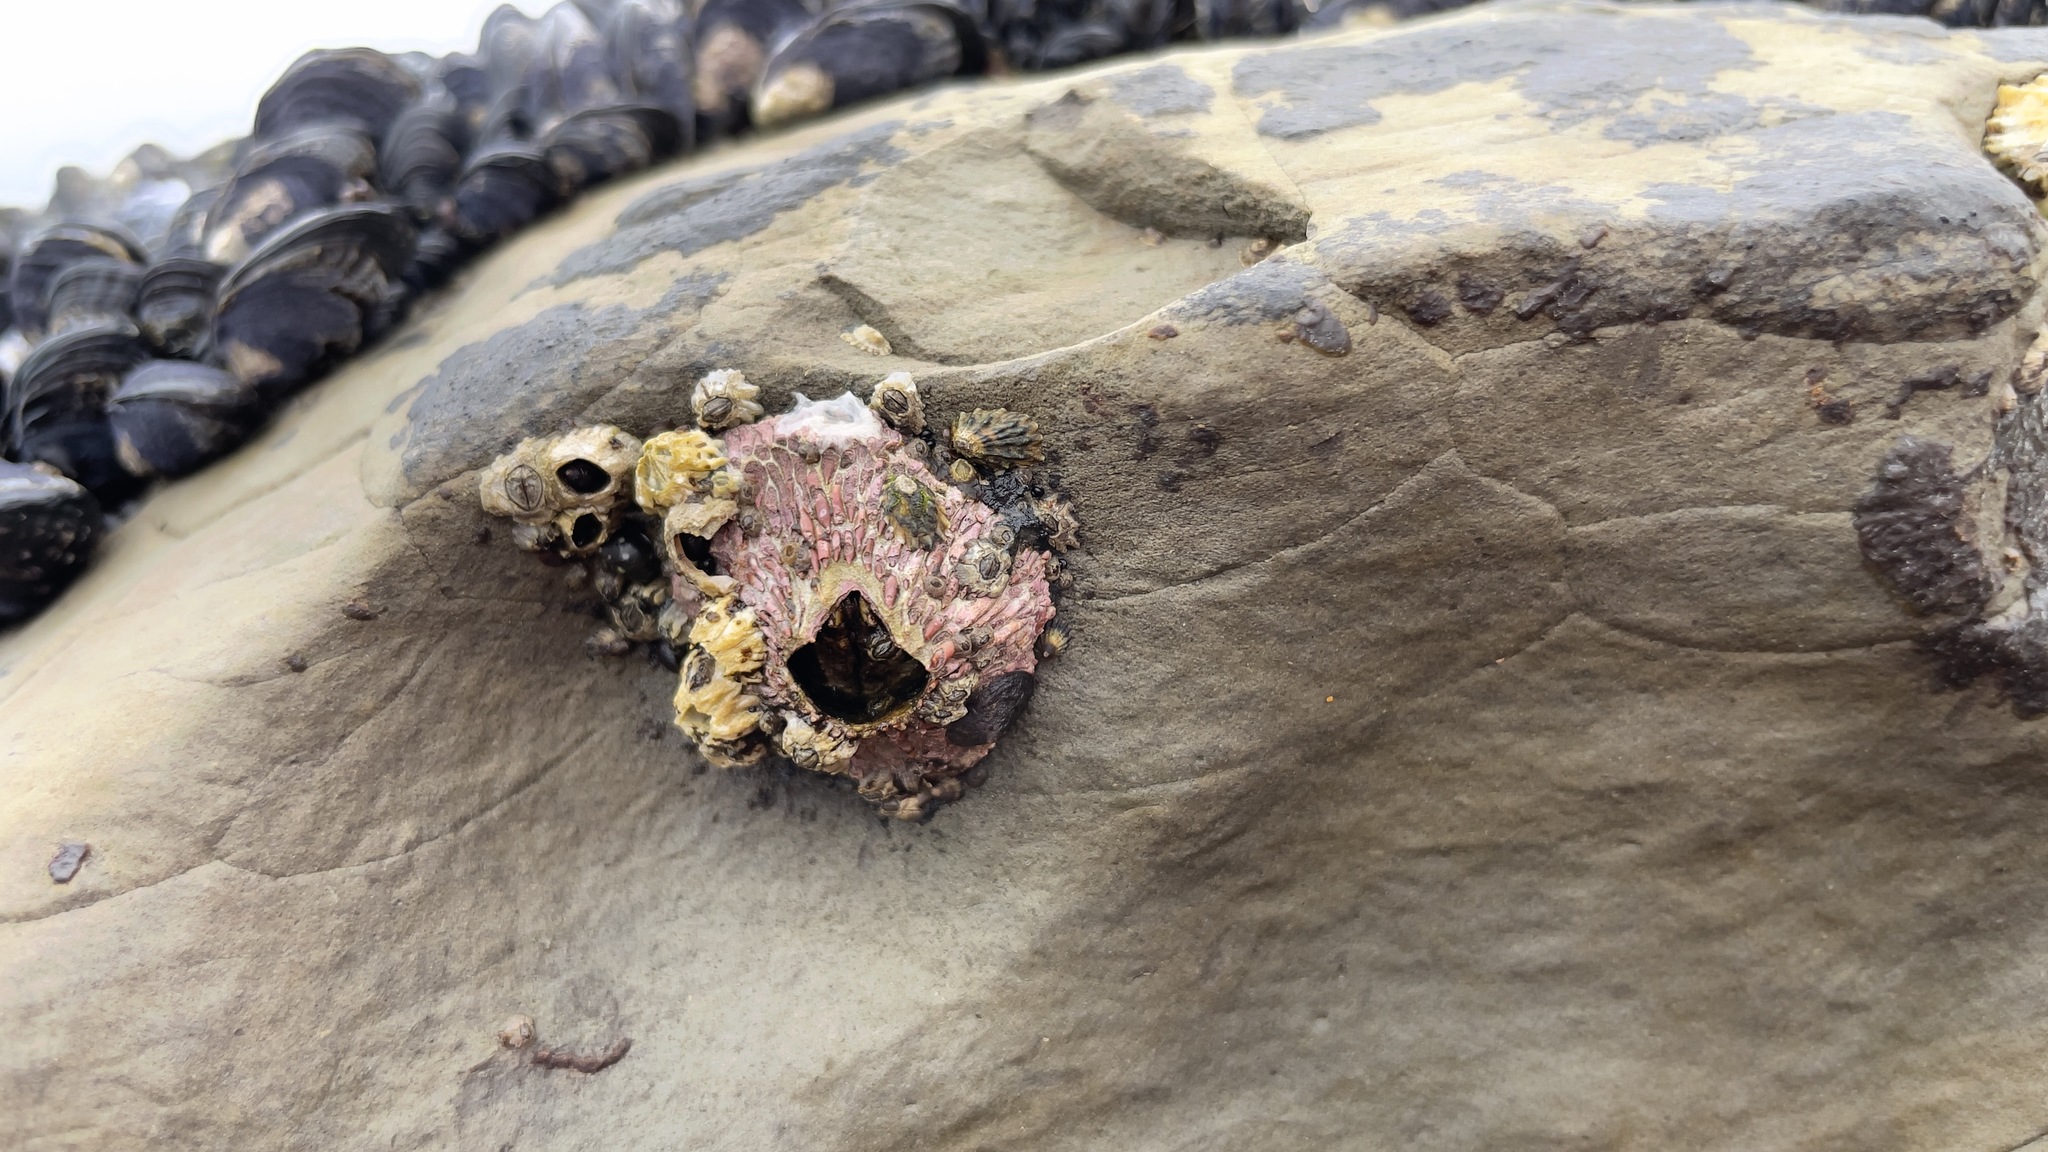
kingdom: Animalia
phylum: Arthropoda
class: Maxillopoda
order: Sessilia
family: Tetraclitidae
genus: Tetraclita
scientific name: Tetraclita rubescens
